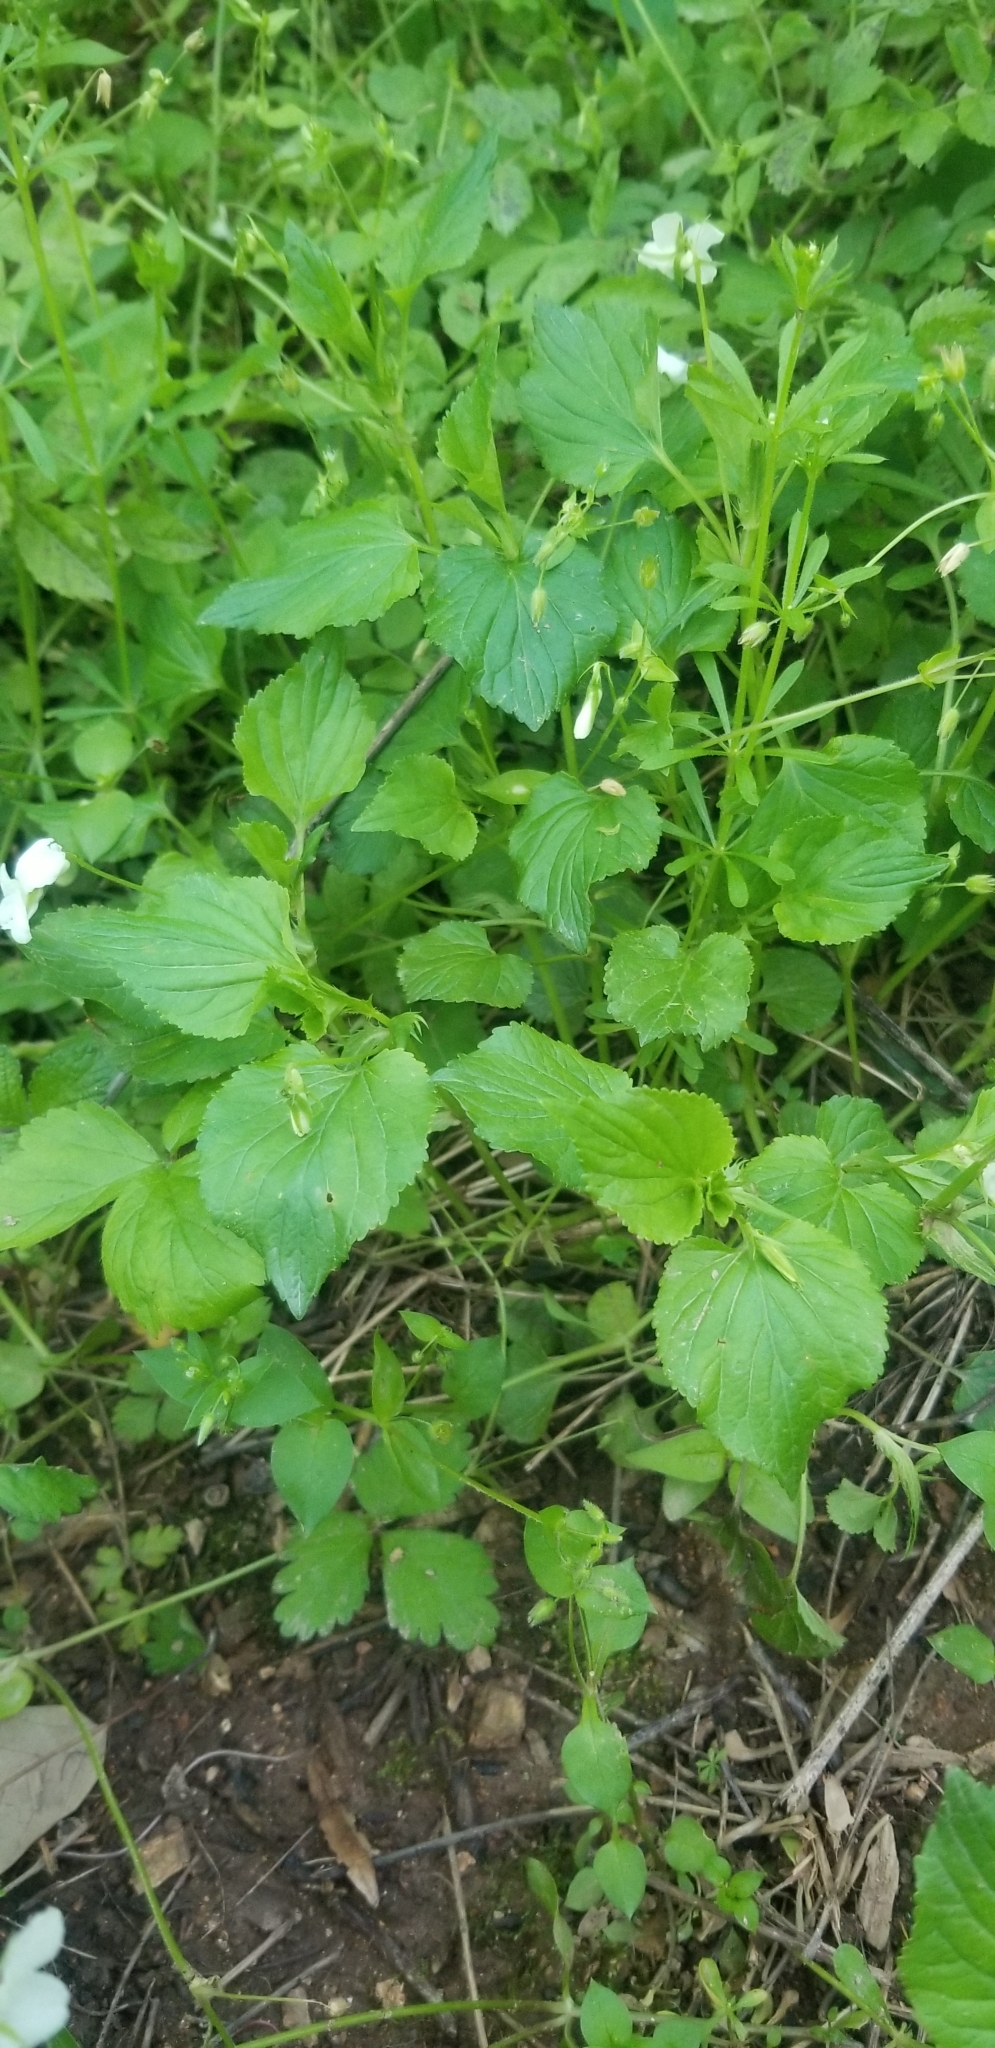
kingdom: Plantae
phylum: Tracheophyta
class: Magnoliopsida
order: Malpighiales
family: Violaceae
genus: Viola
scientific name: Viola striata
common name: Cream violet
